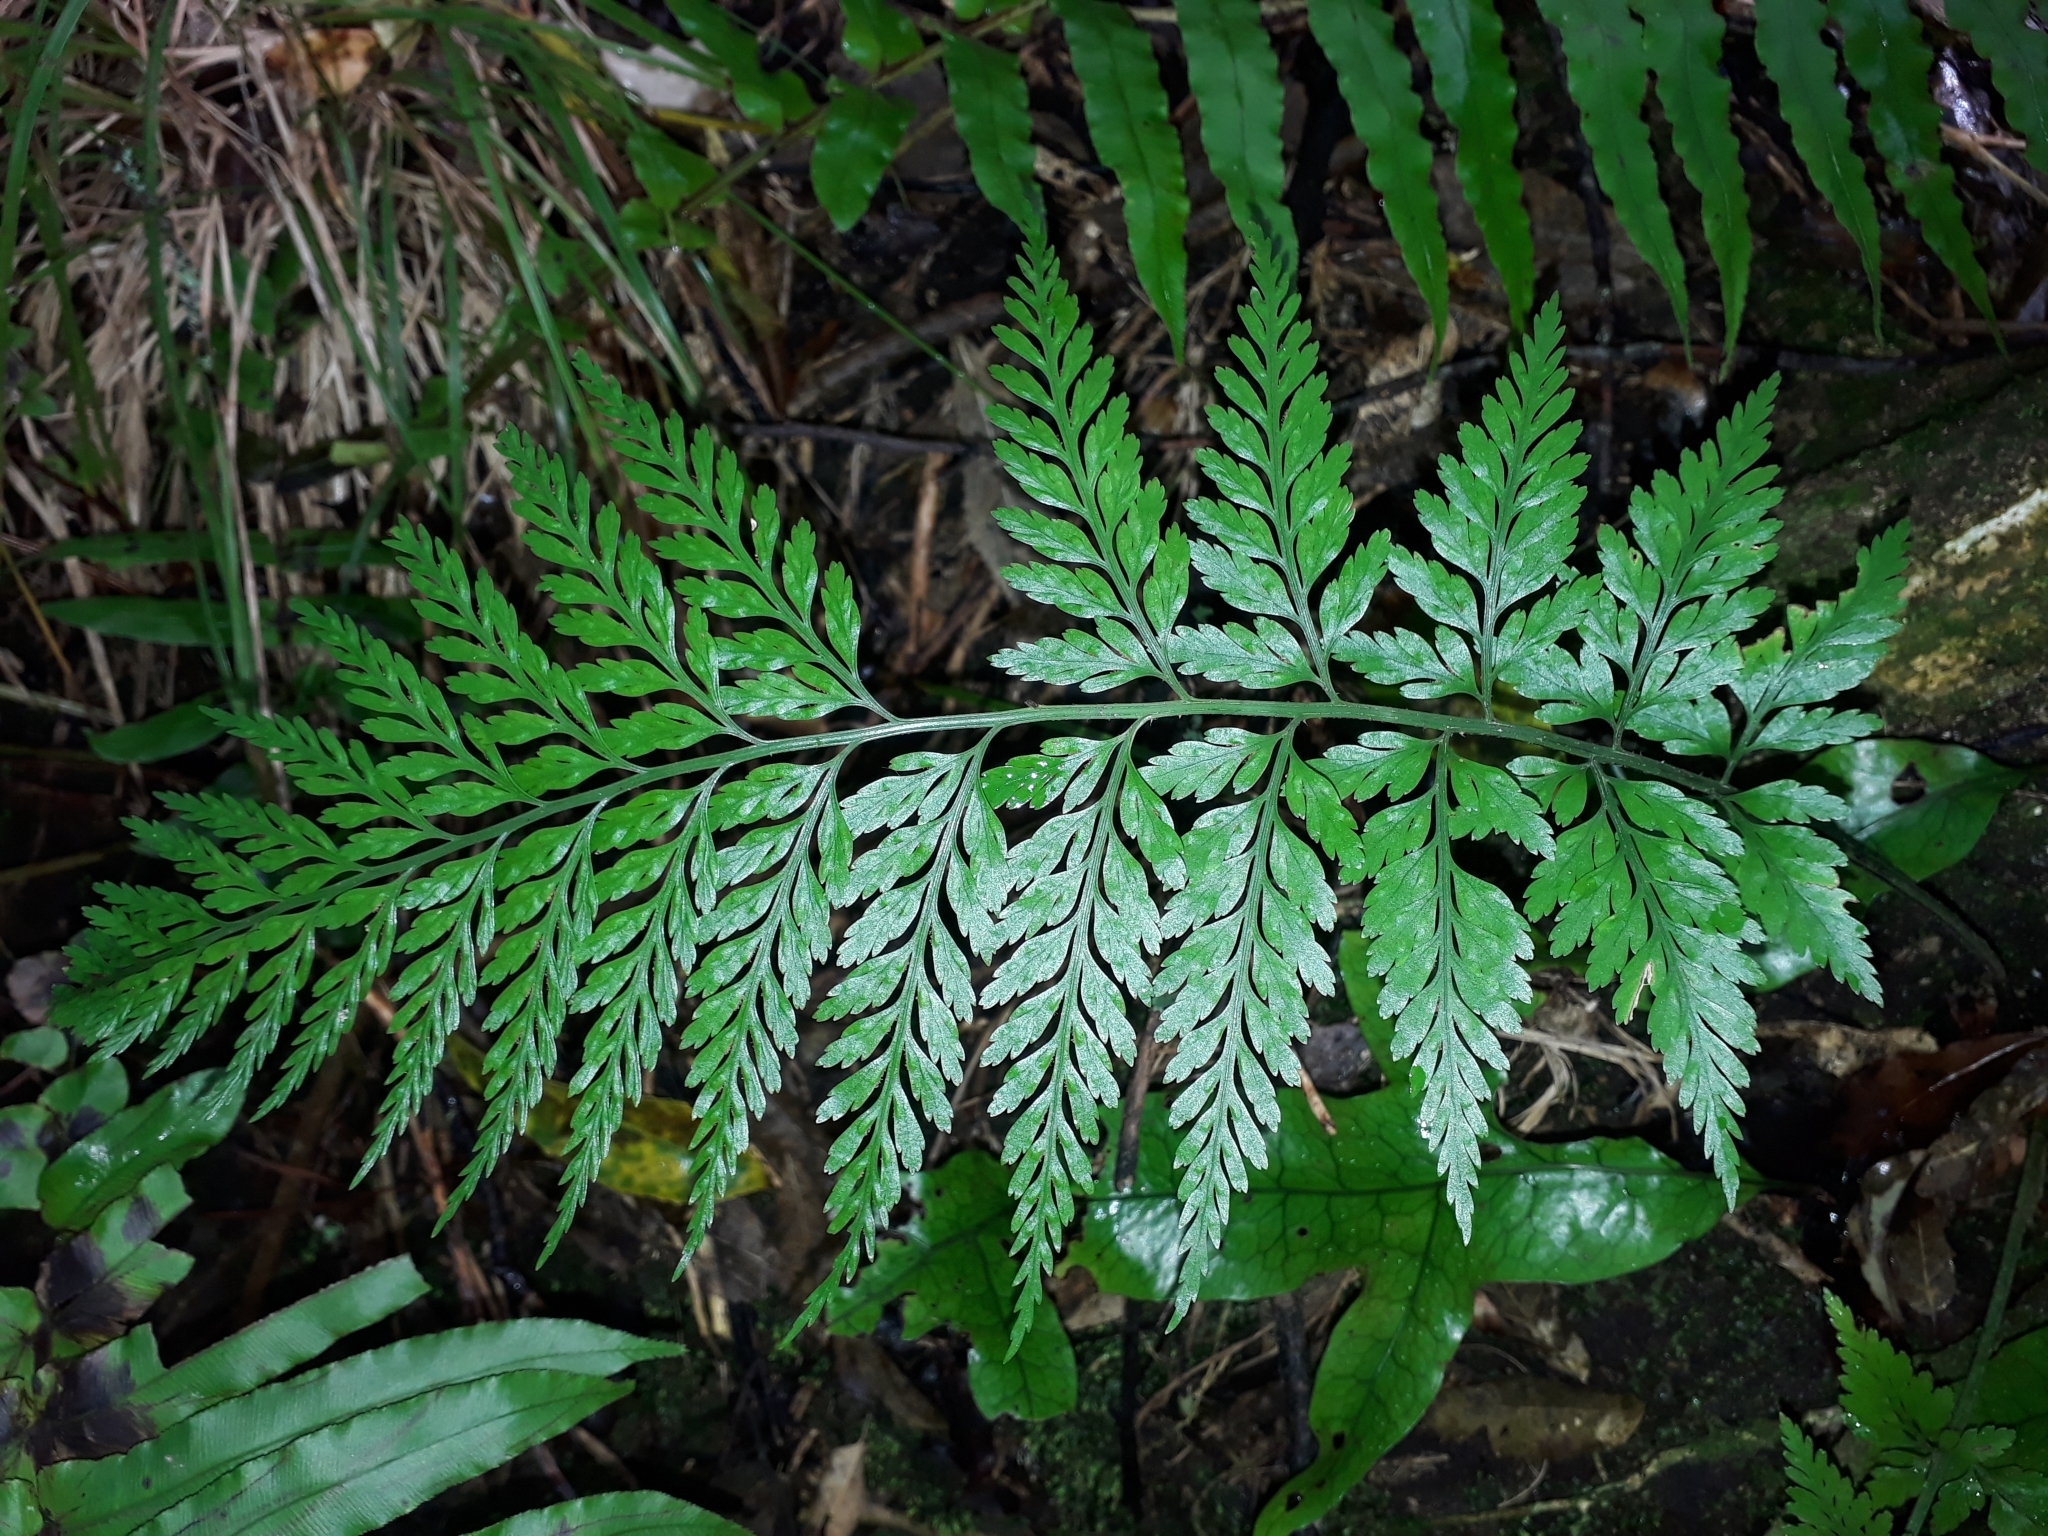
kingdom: Plantae
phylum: Tracheophyta
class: Polypodiopsida
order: Polypodiales
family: Aspleniaceae
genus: Asplenium
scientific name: Asplenium
